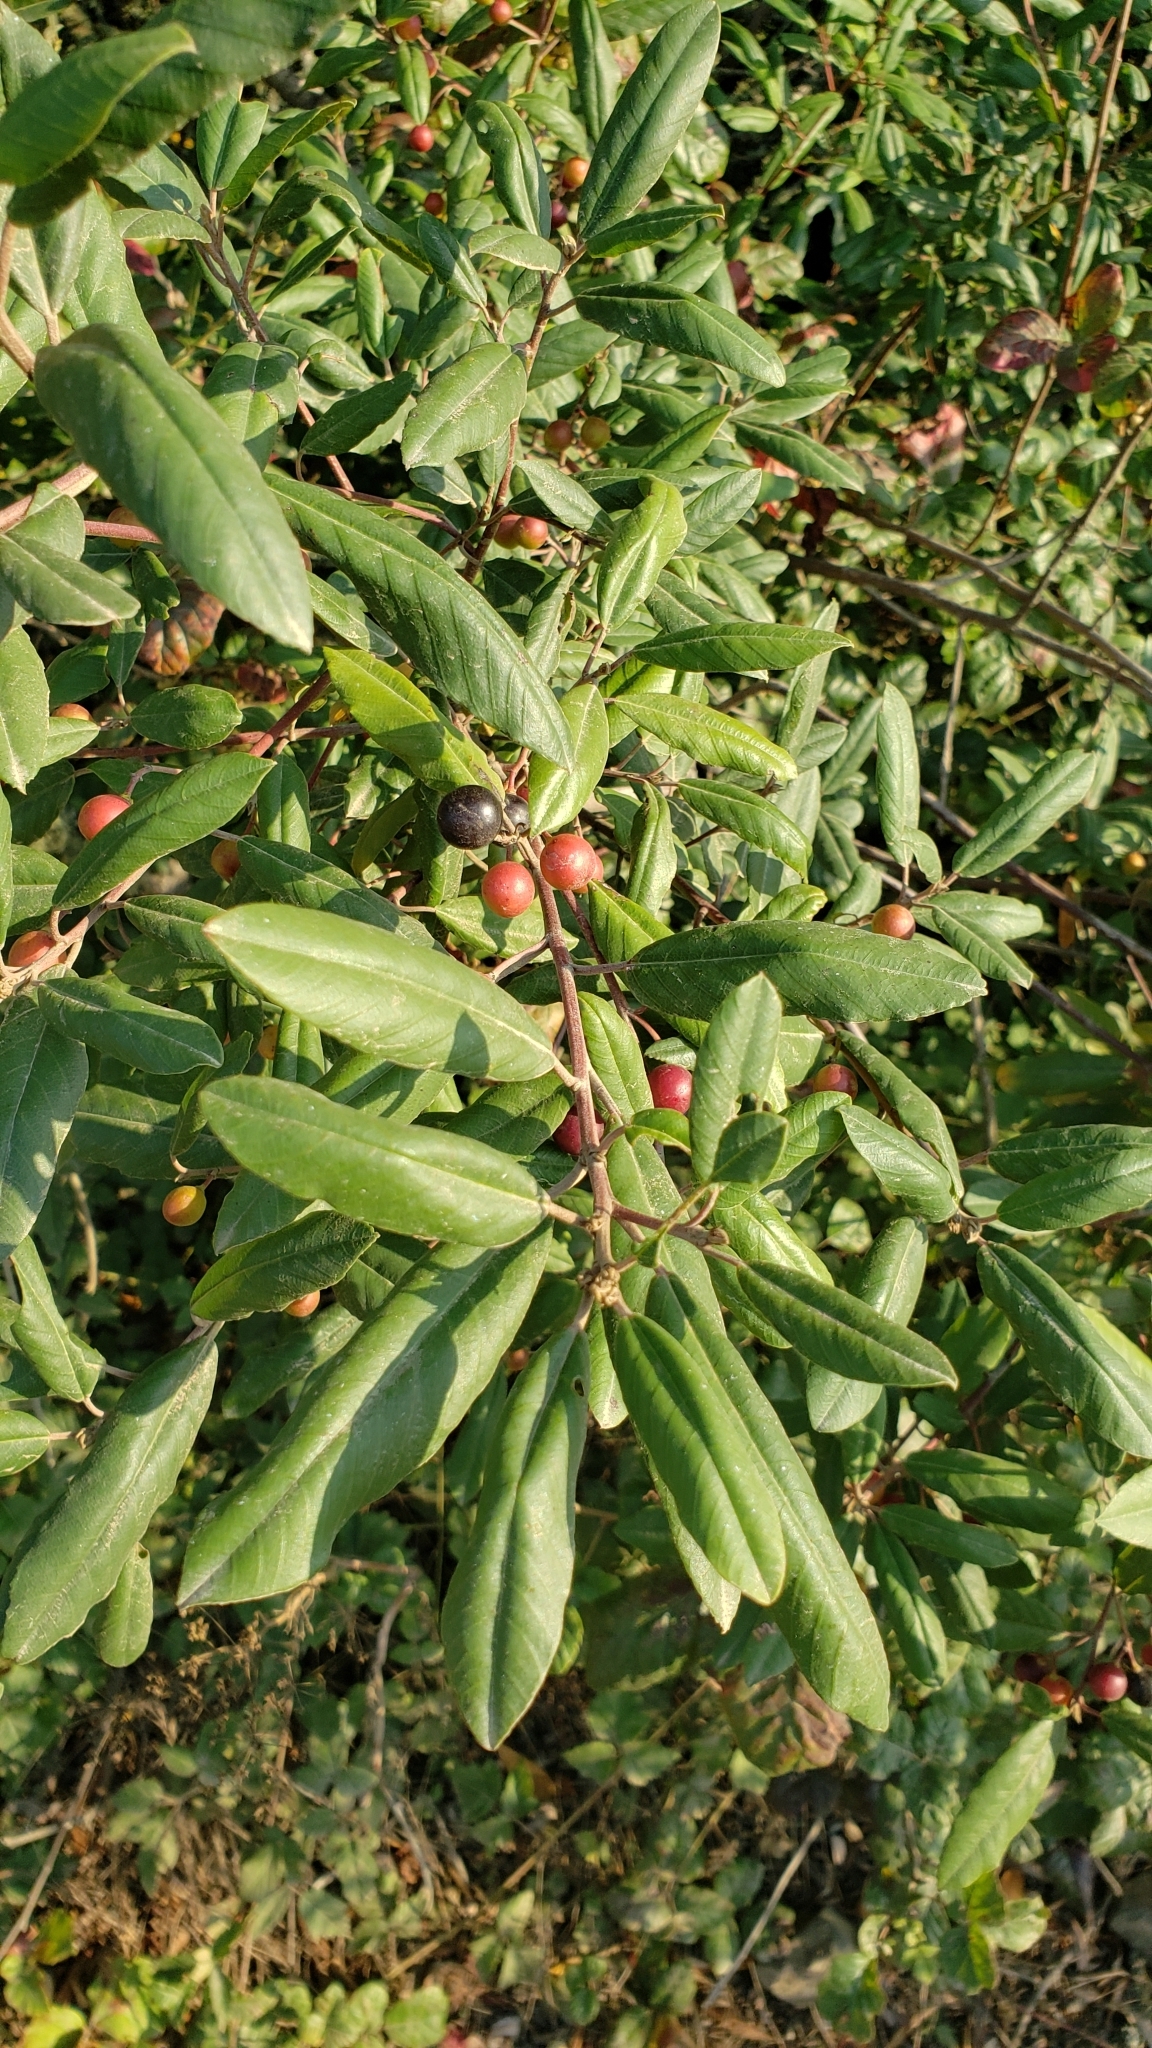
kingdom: Plantae
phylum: Tracheophyta
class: Magnoliopsida
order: Rosales
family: Rhamnaceae
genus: Frangula
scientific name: Frangula californica
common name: California buckthorn
